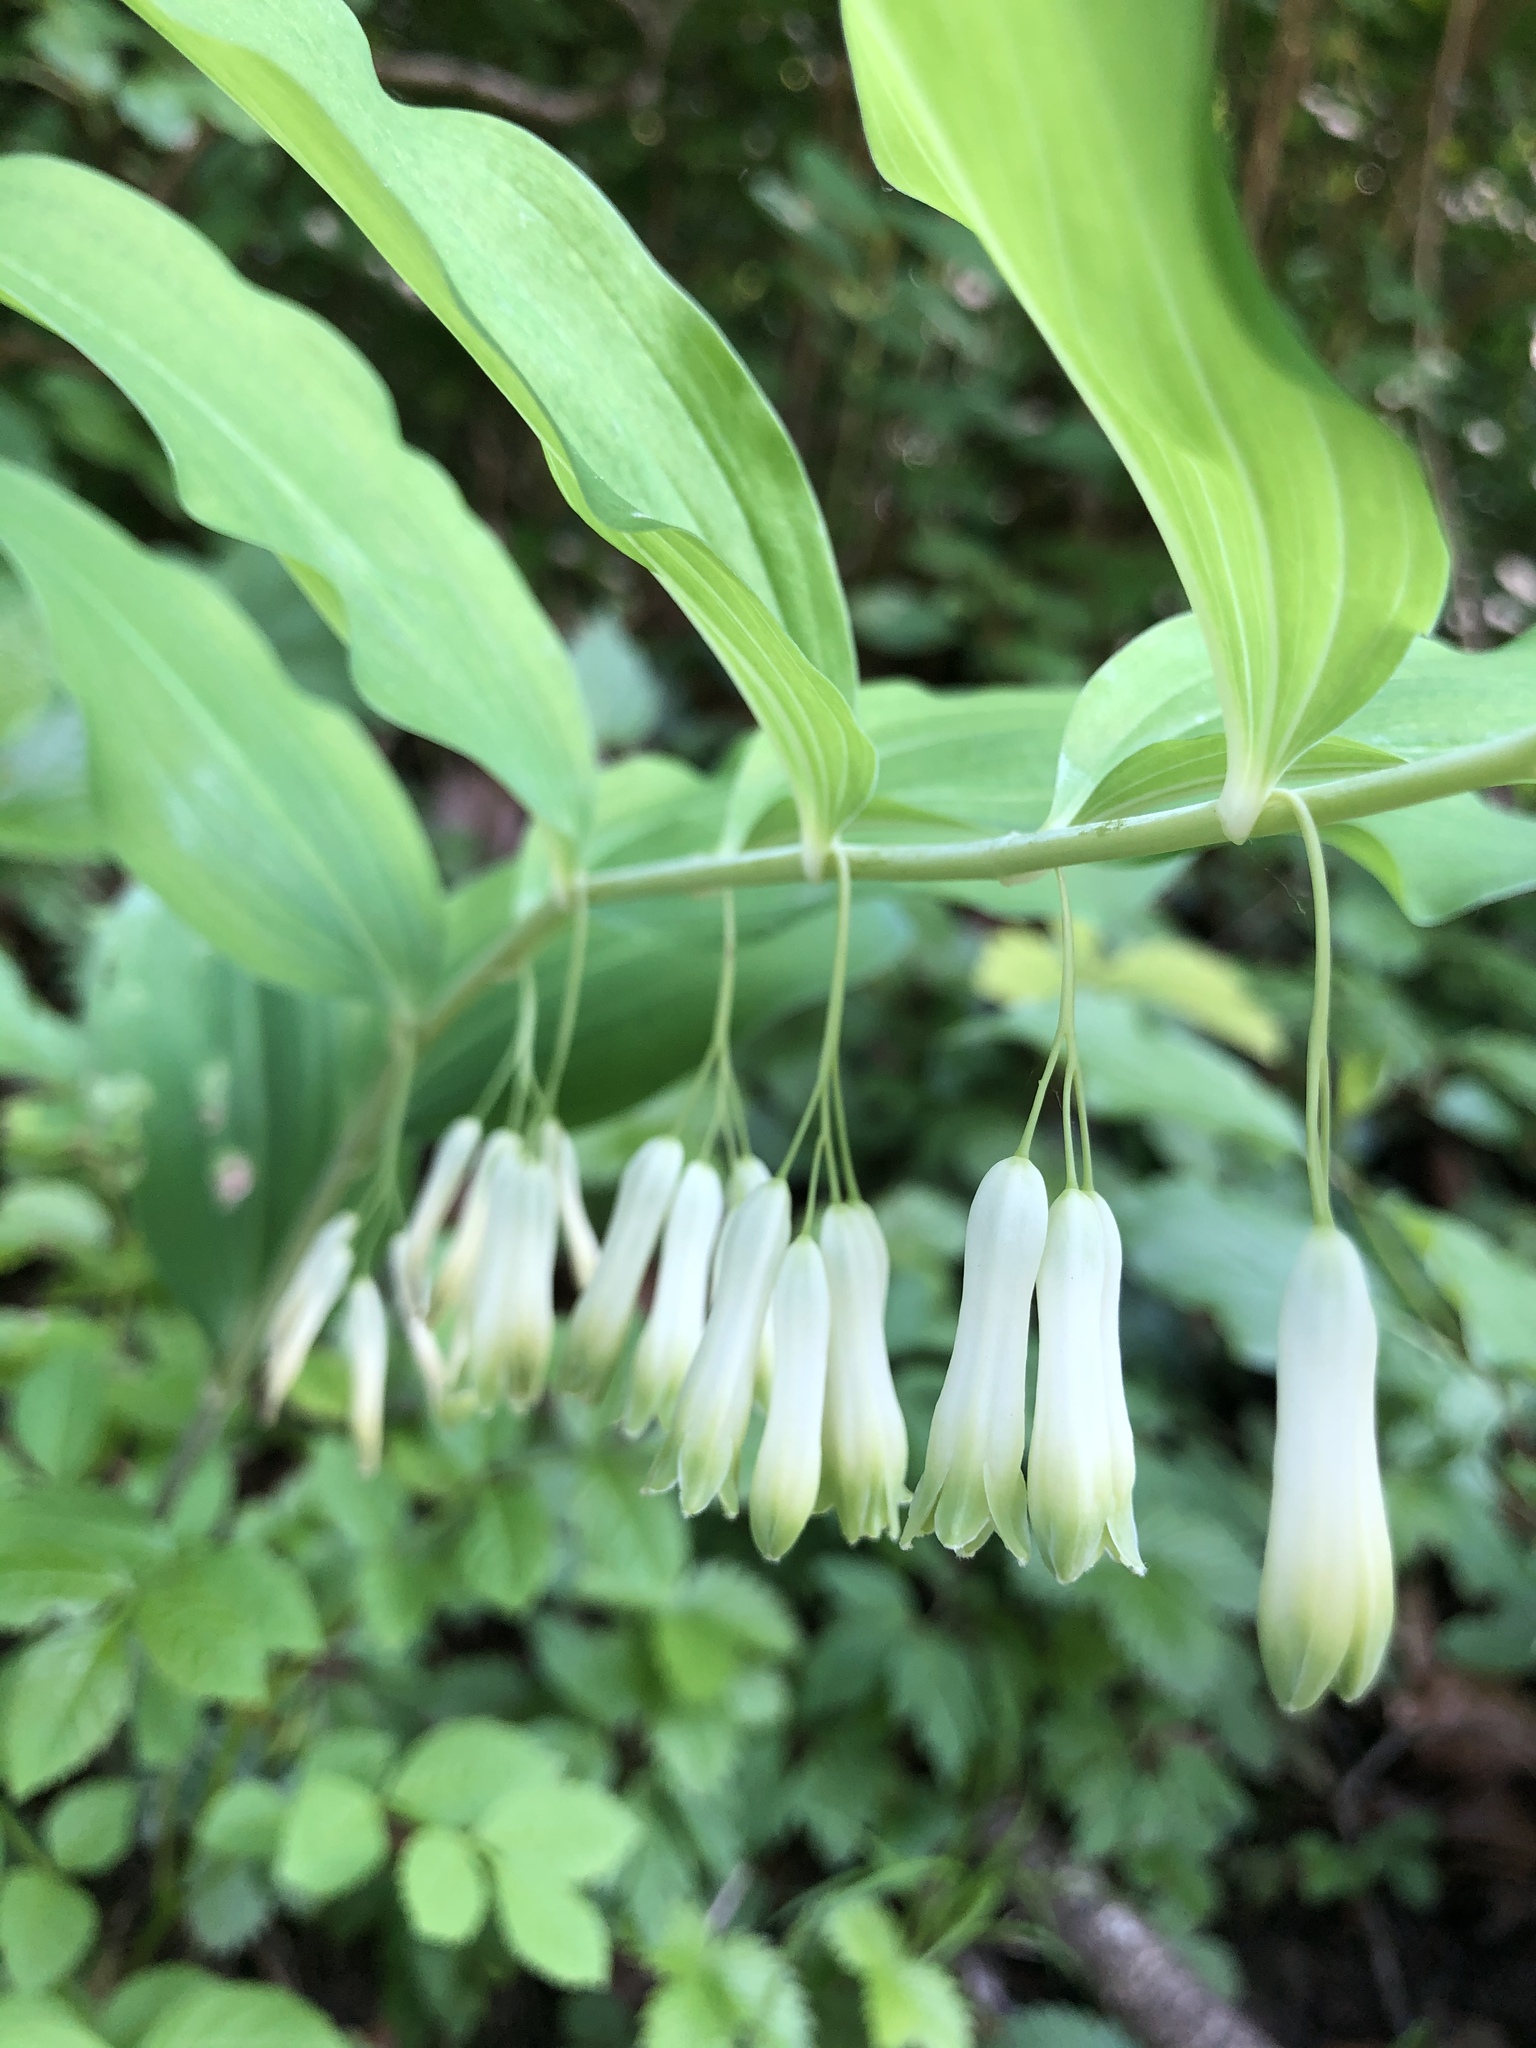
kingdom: Plantae
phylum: Tracheophyta
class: Liliopsida
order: Asparagales
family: Asparagaceae
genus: Polygonatum
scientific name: Polygonatum multiflorum
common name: Solomon's-seal
